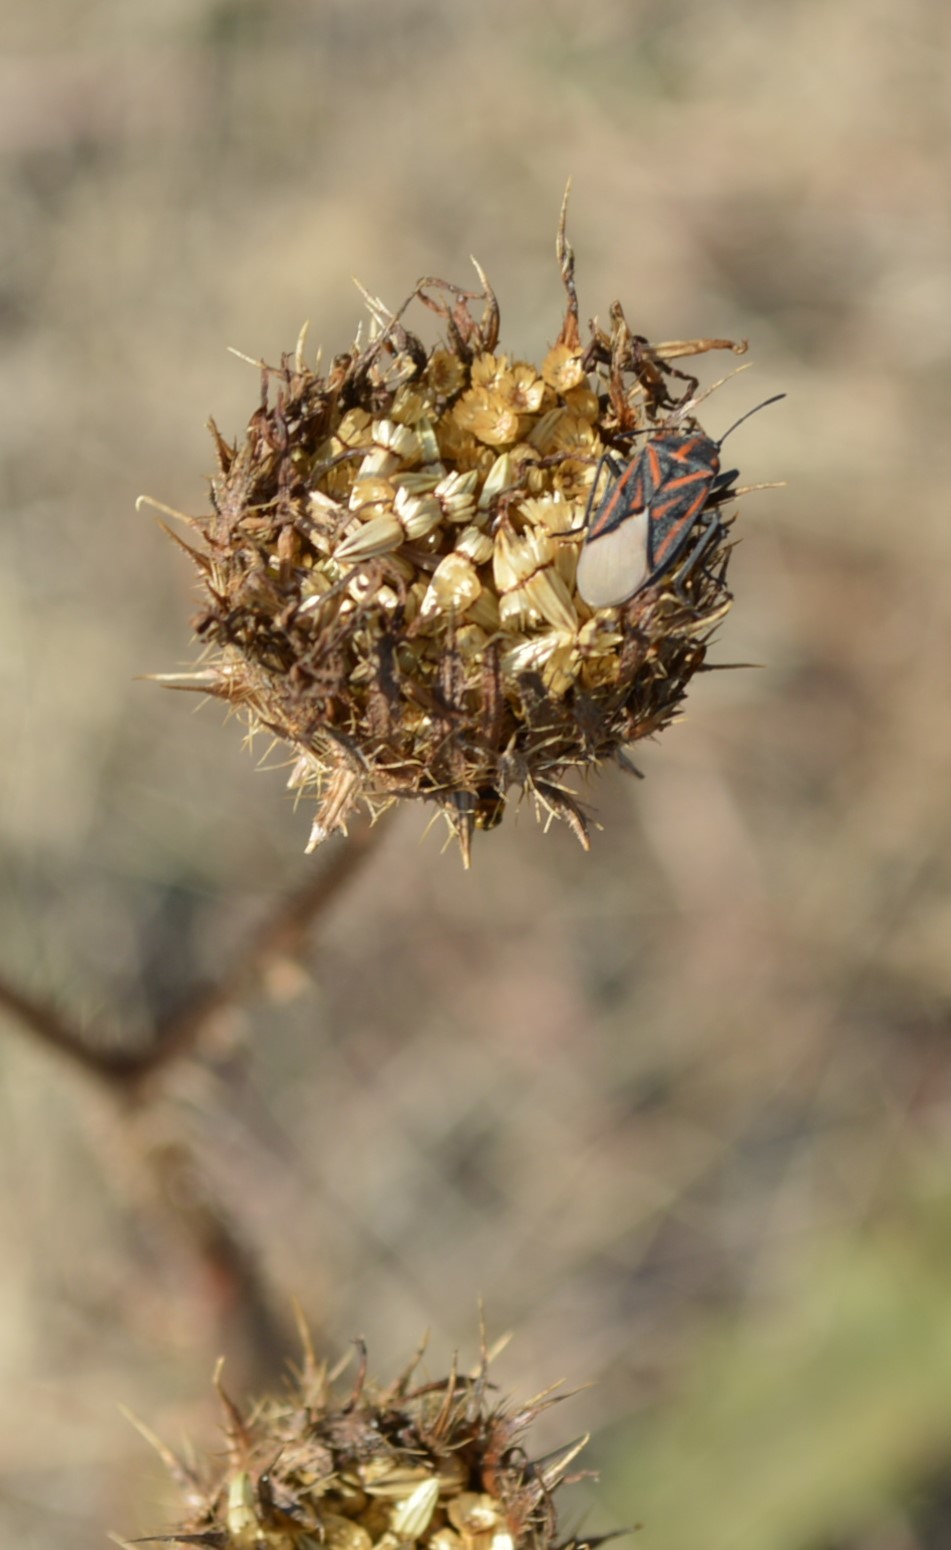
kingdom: Plantae
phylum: Tracheophyta
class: Magnoliopsida
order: Asterales
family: Asteraceae
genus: Berkheya
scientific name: Berkheya radula
